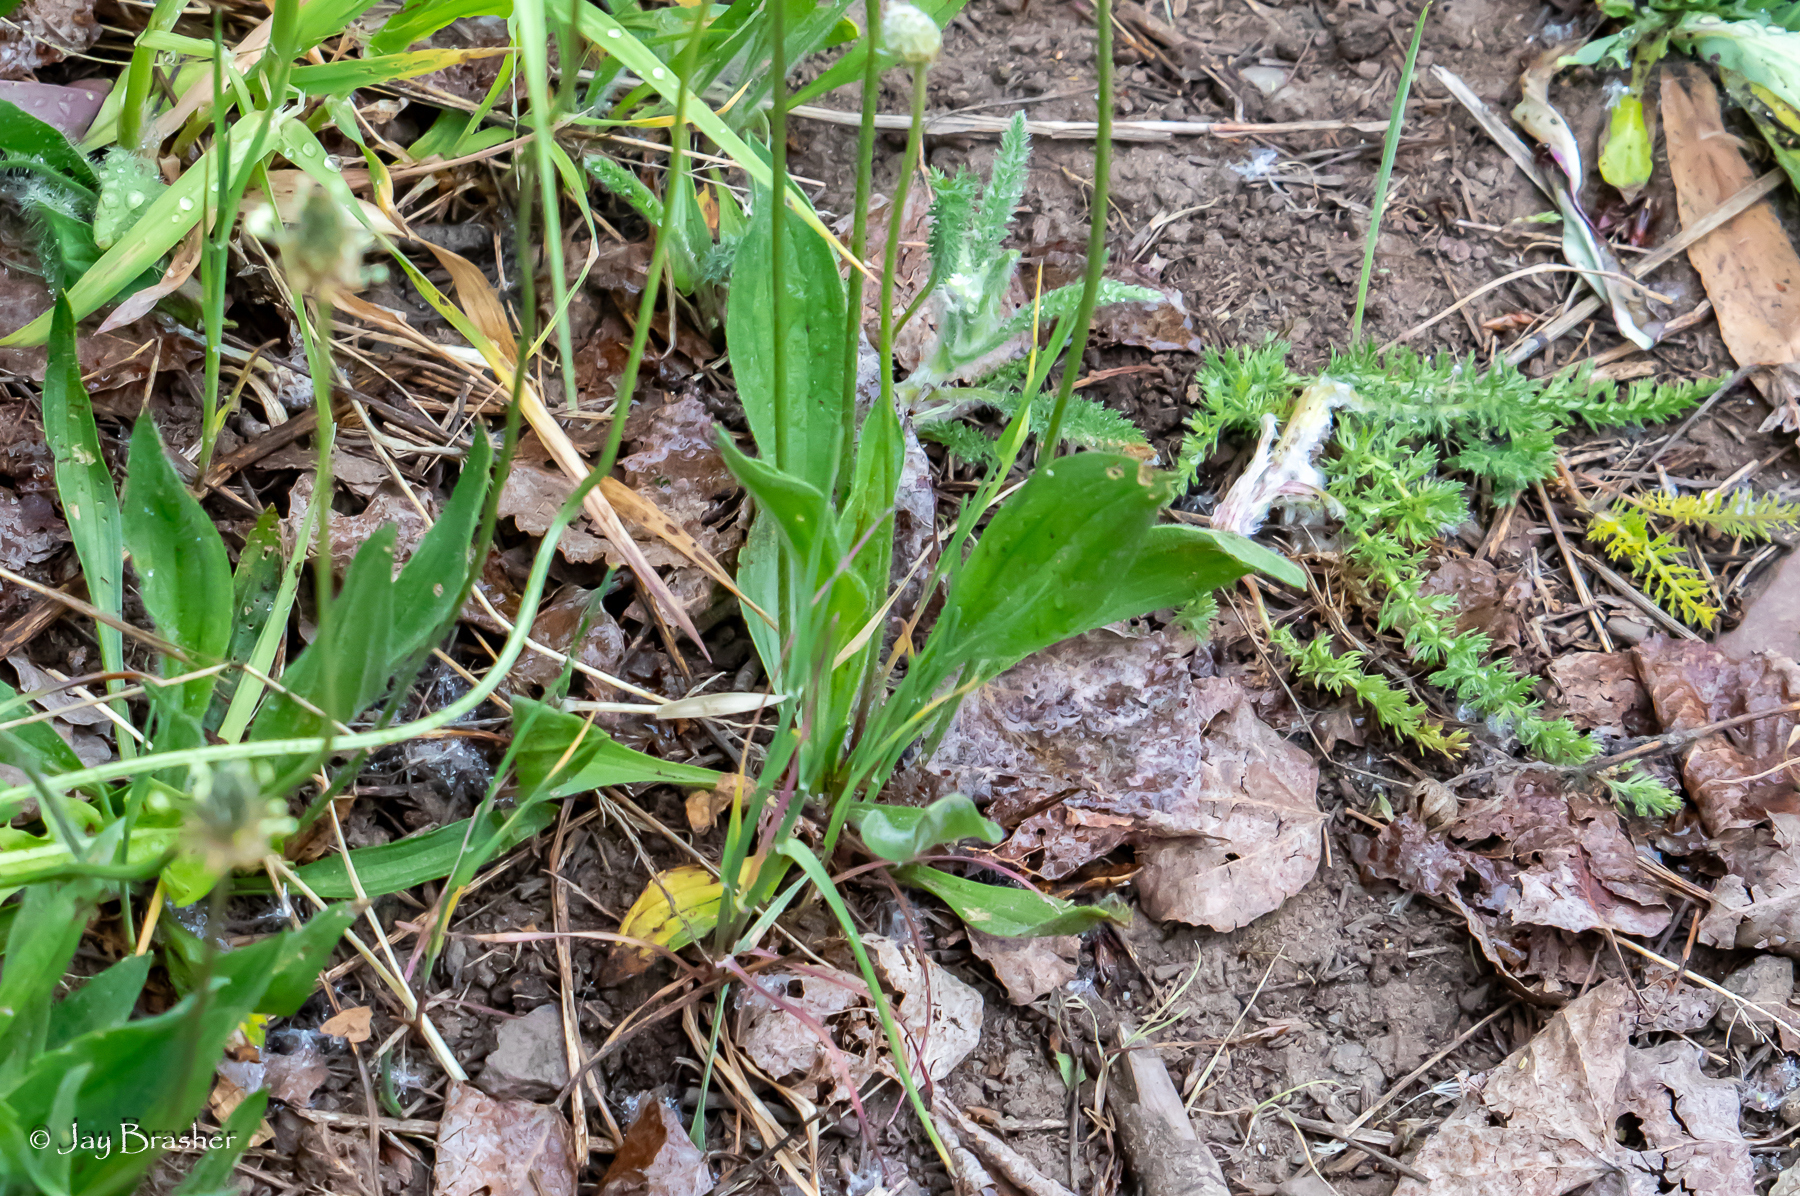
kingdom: Plantae
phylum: Tracheophyta
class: Magnoliopsida
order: Lamiales
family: Plantaginaceae
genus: Plantago
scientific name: Plantago lanceolata
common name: Ribwort plantain
